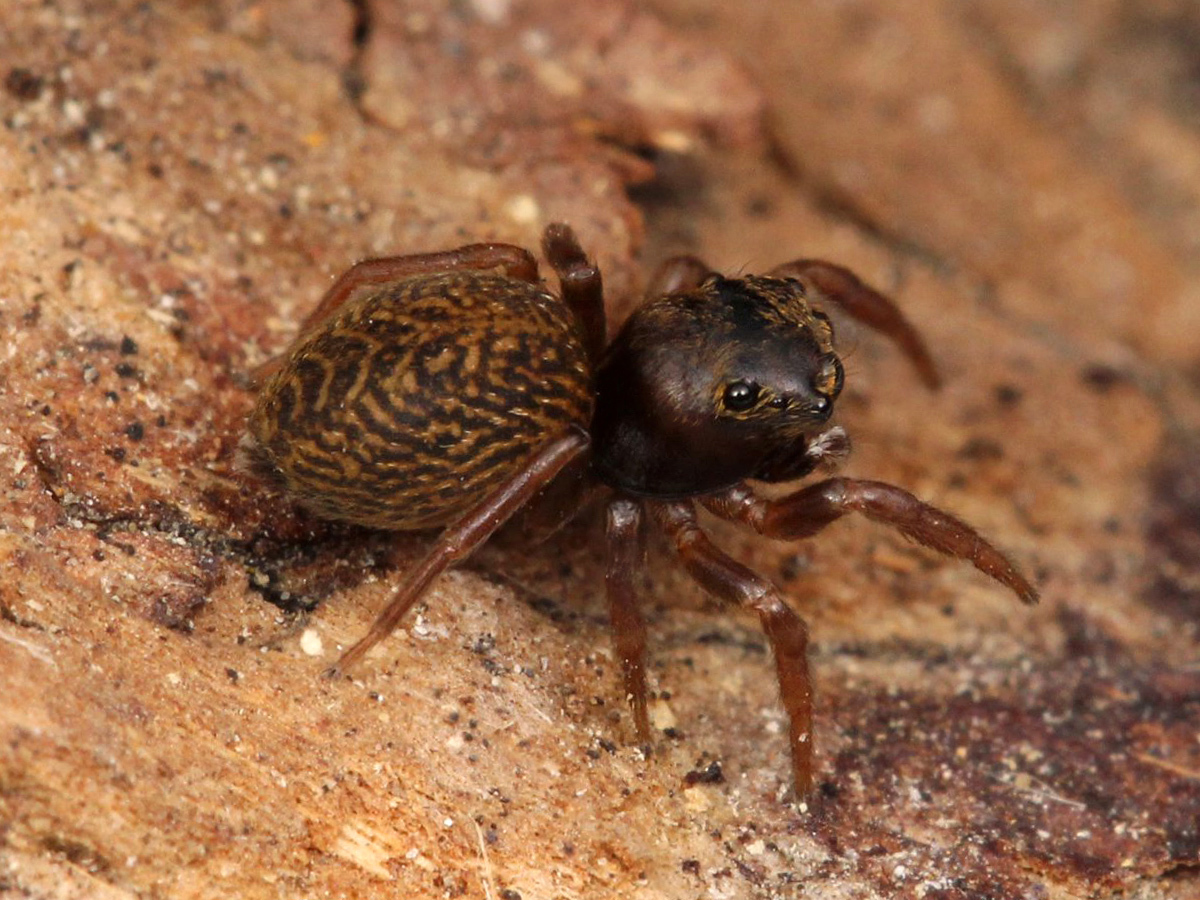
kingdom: Animalia
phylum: Arthropoda
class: Arachnida
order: Araneae
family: Salticidae
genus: Chinattus
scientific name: Chinattus parvulus
